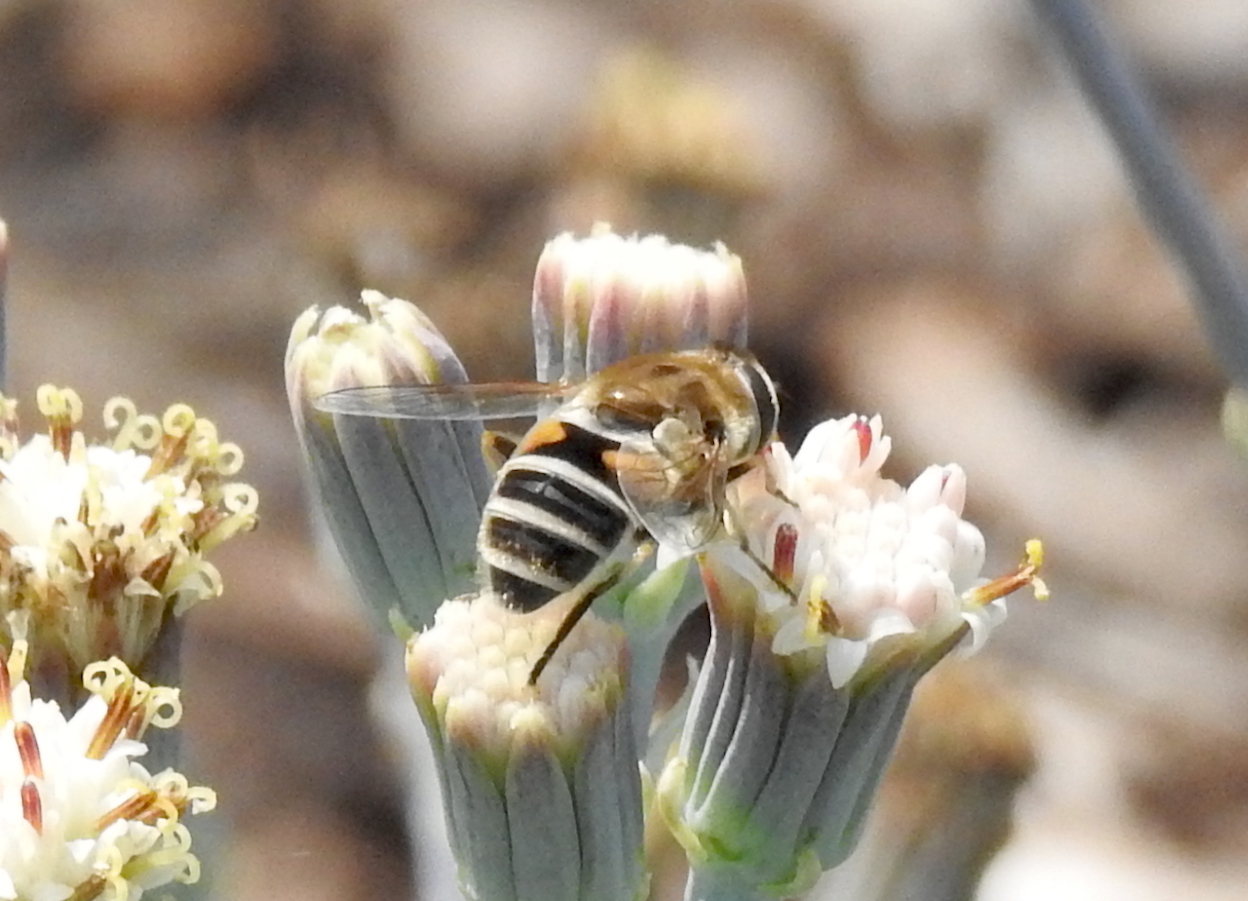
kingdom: Animalia
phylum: Arthropoda
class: Insecta
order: Diptera
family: Syrphidae
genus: Eristalis
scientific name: Eristalis arbustorum
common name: Hover fly
